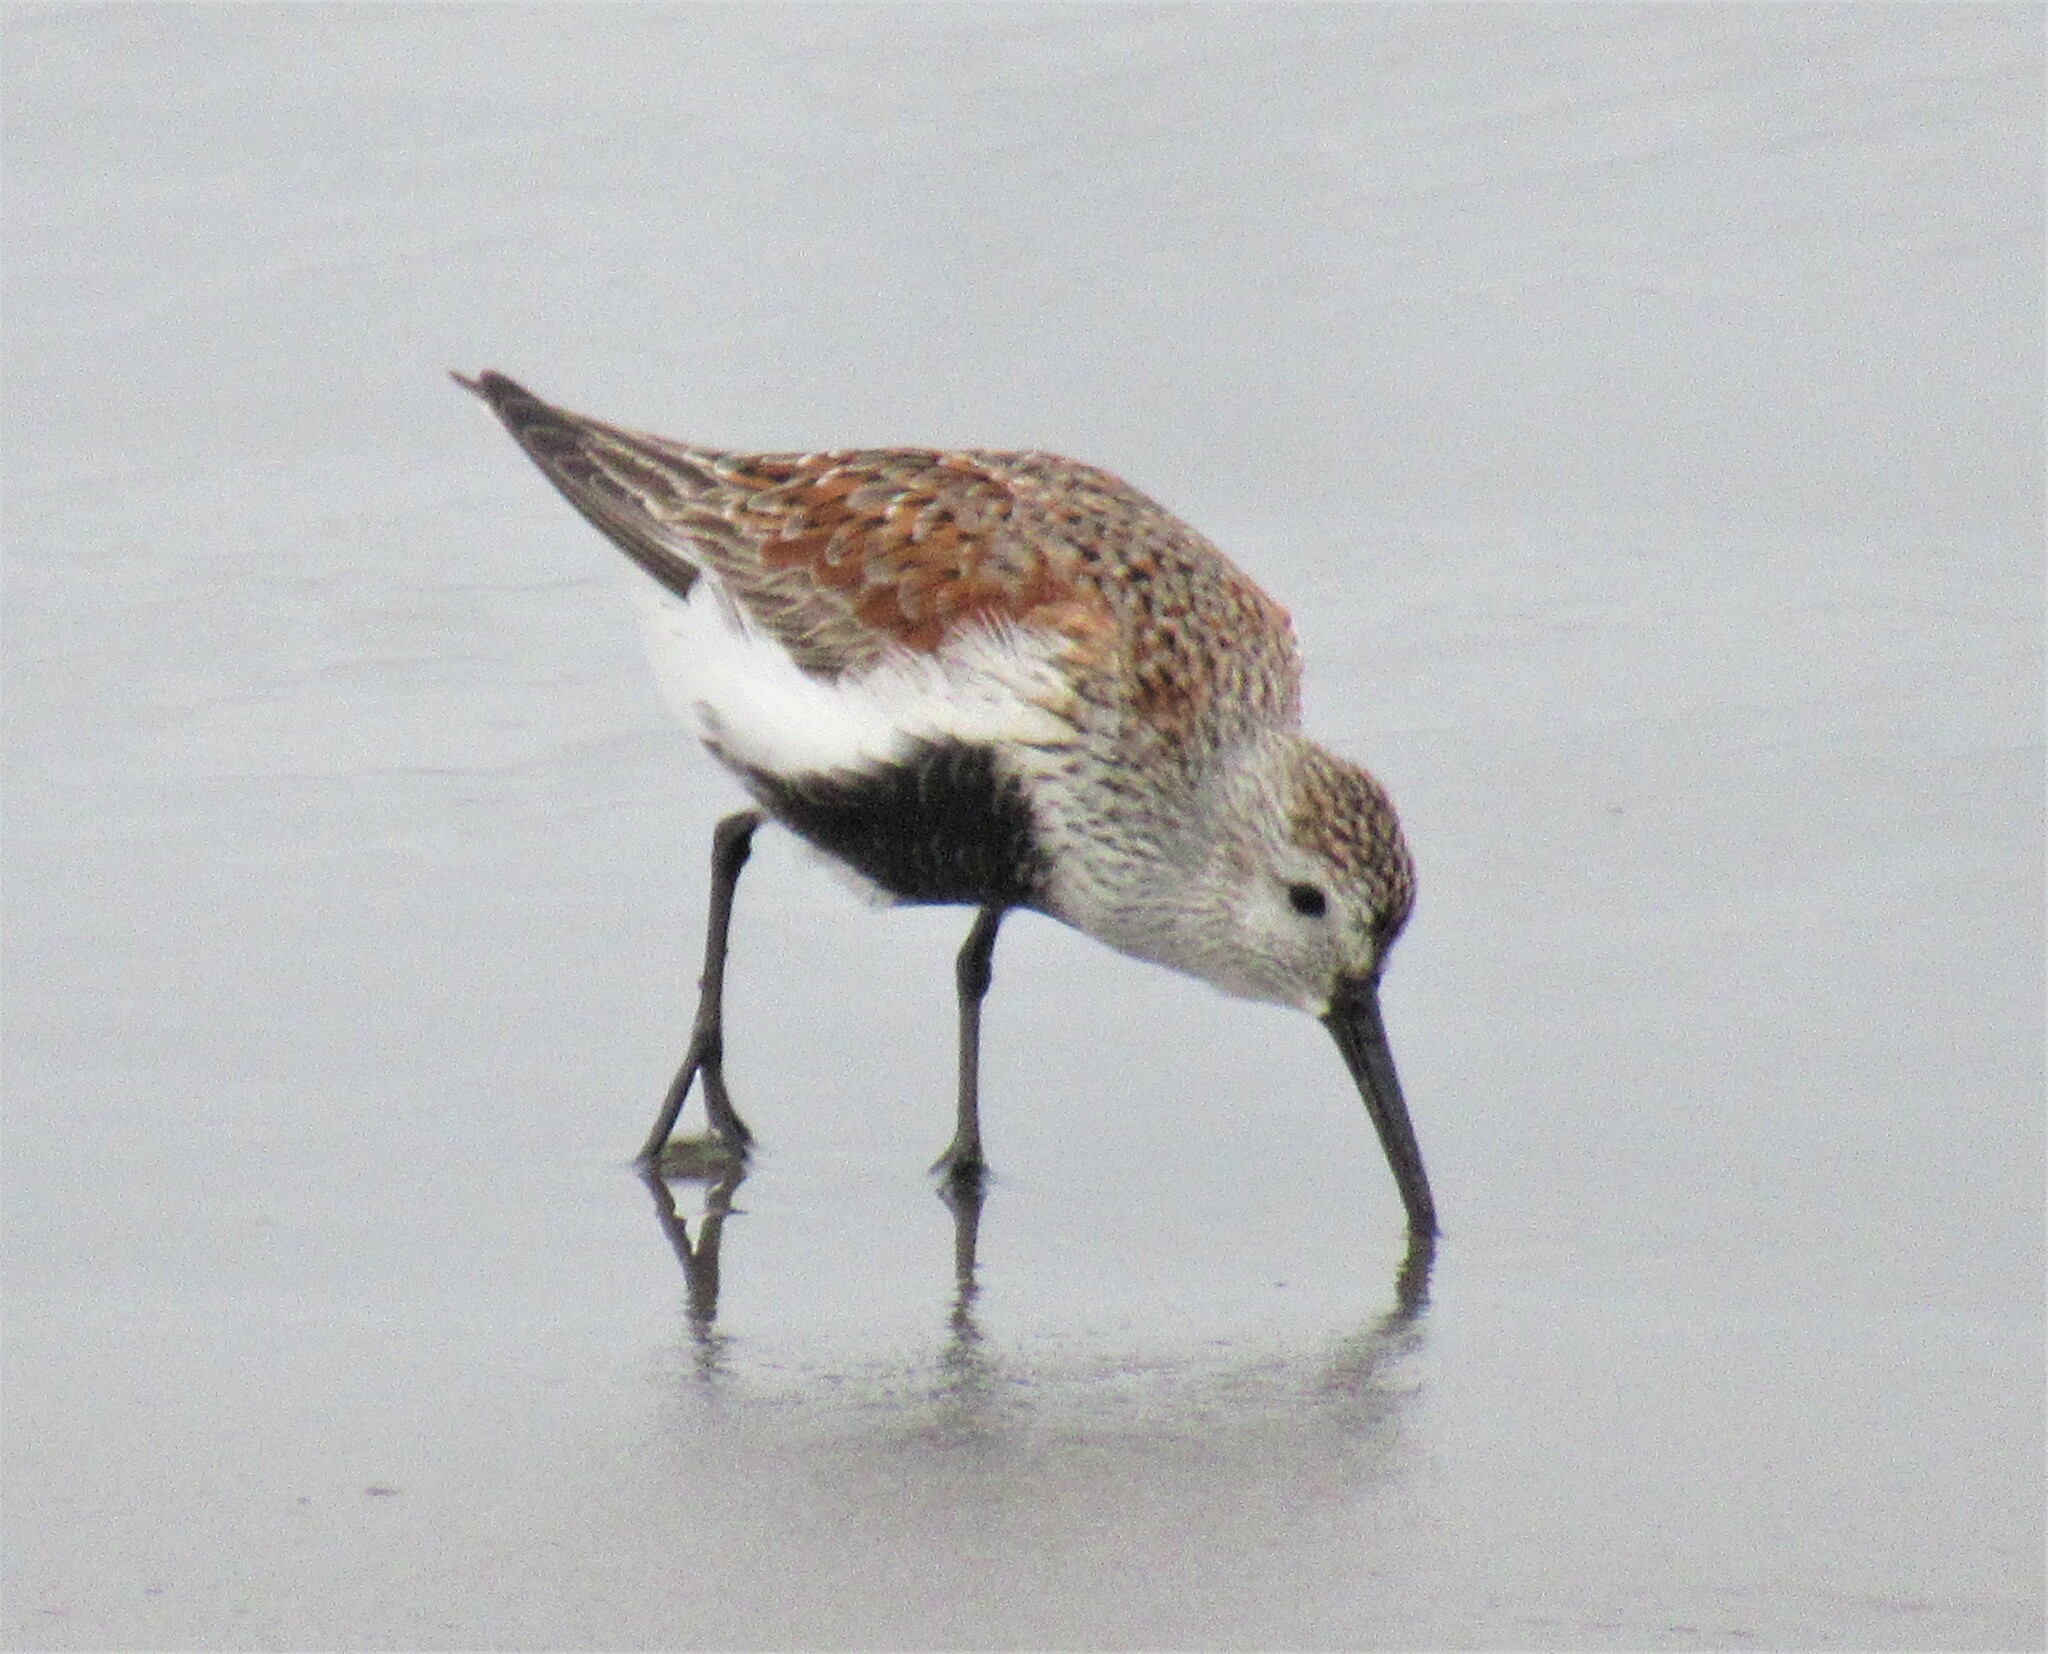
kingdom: Animalia
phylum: Chordata
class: Aves
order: Charadriiformes
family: Scolopacidae
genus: Calidris
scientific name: Calidris alpina
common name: Dunlin
